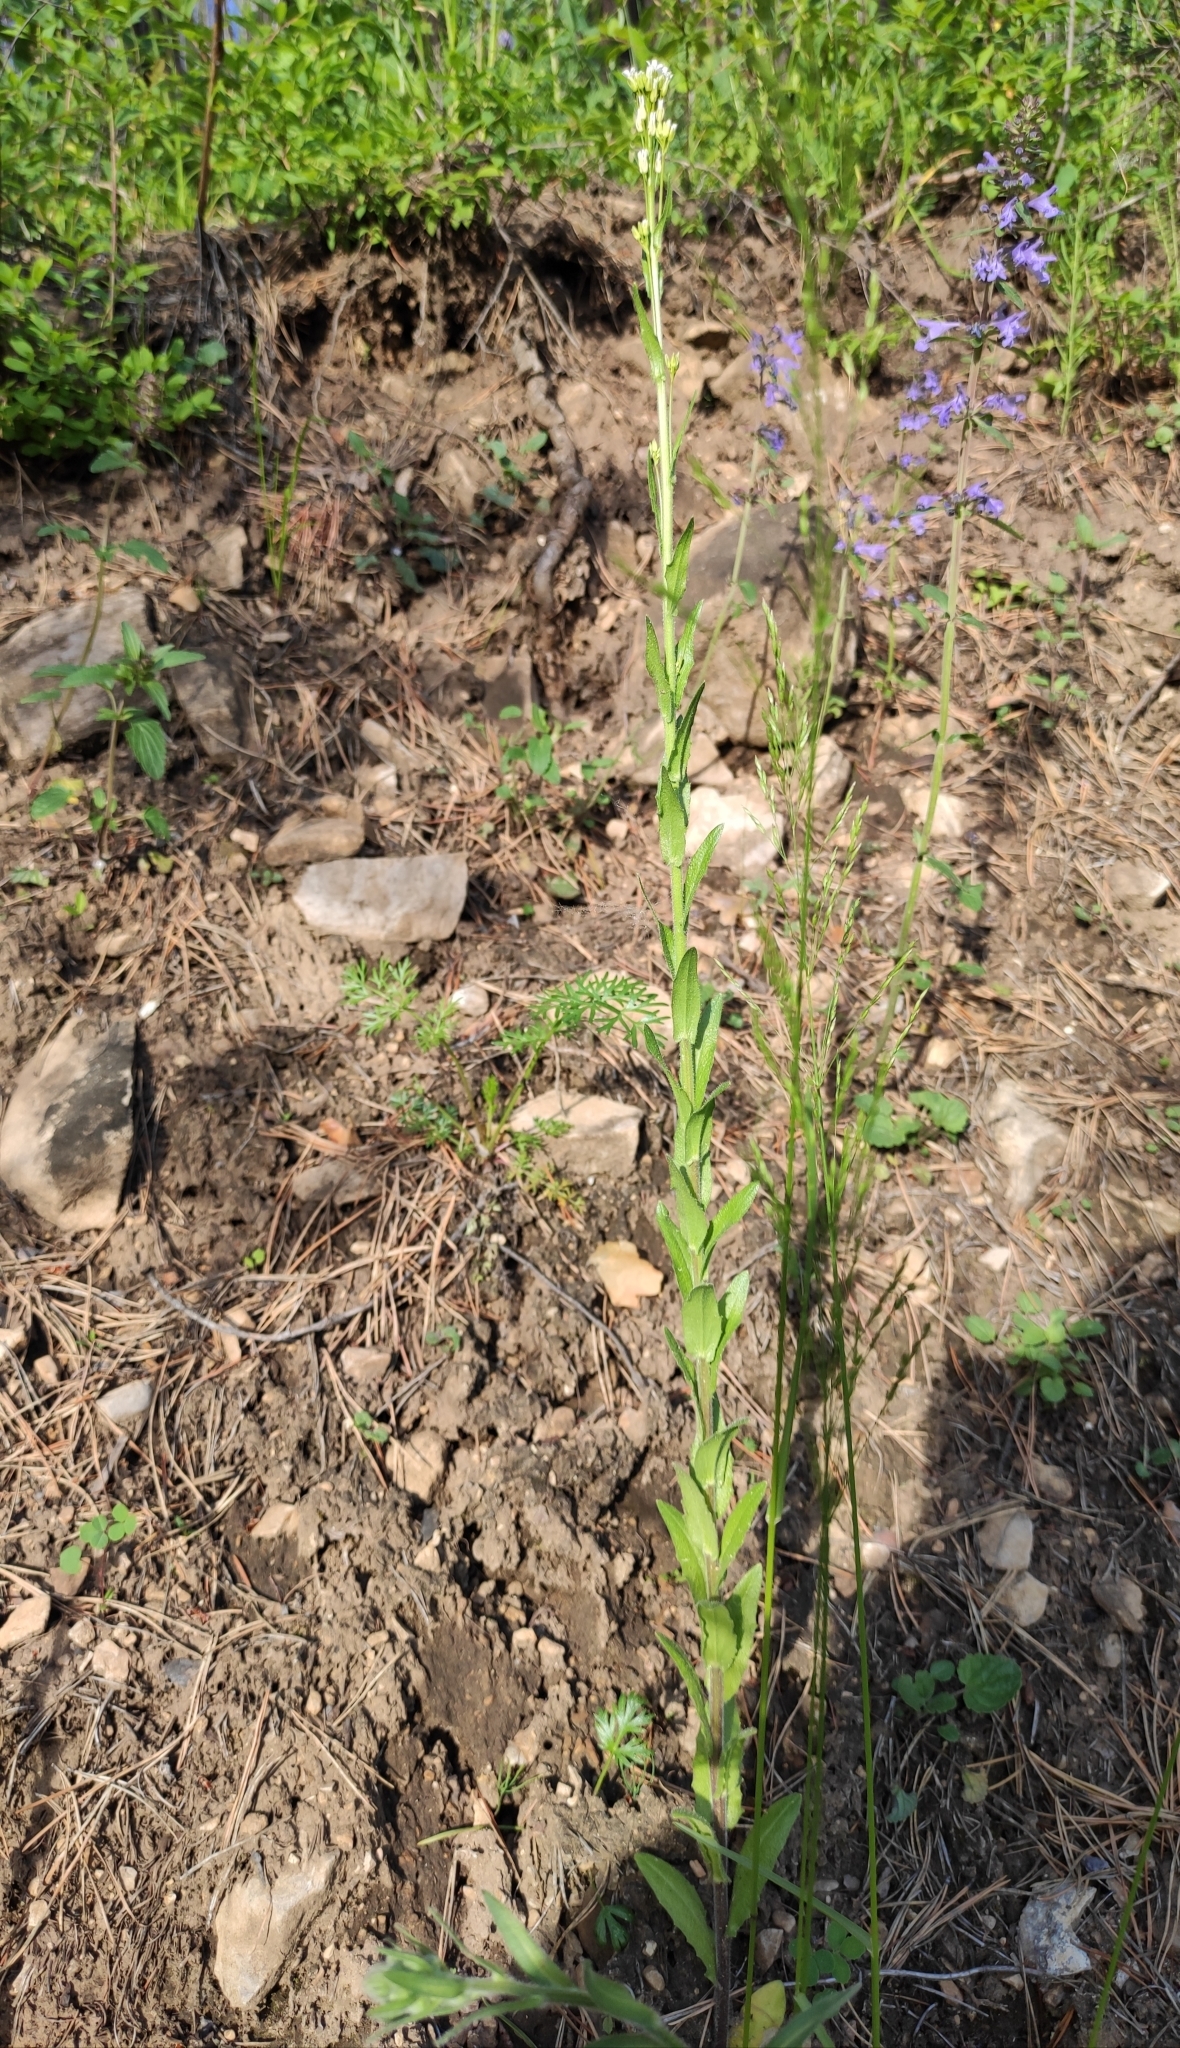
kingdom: Plantae
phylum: Tracheophyta
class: Magnoliopsida
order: Brassicales
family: Brassicaceae
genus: Arabis
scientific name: Arabis borealis
